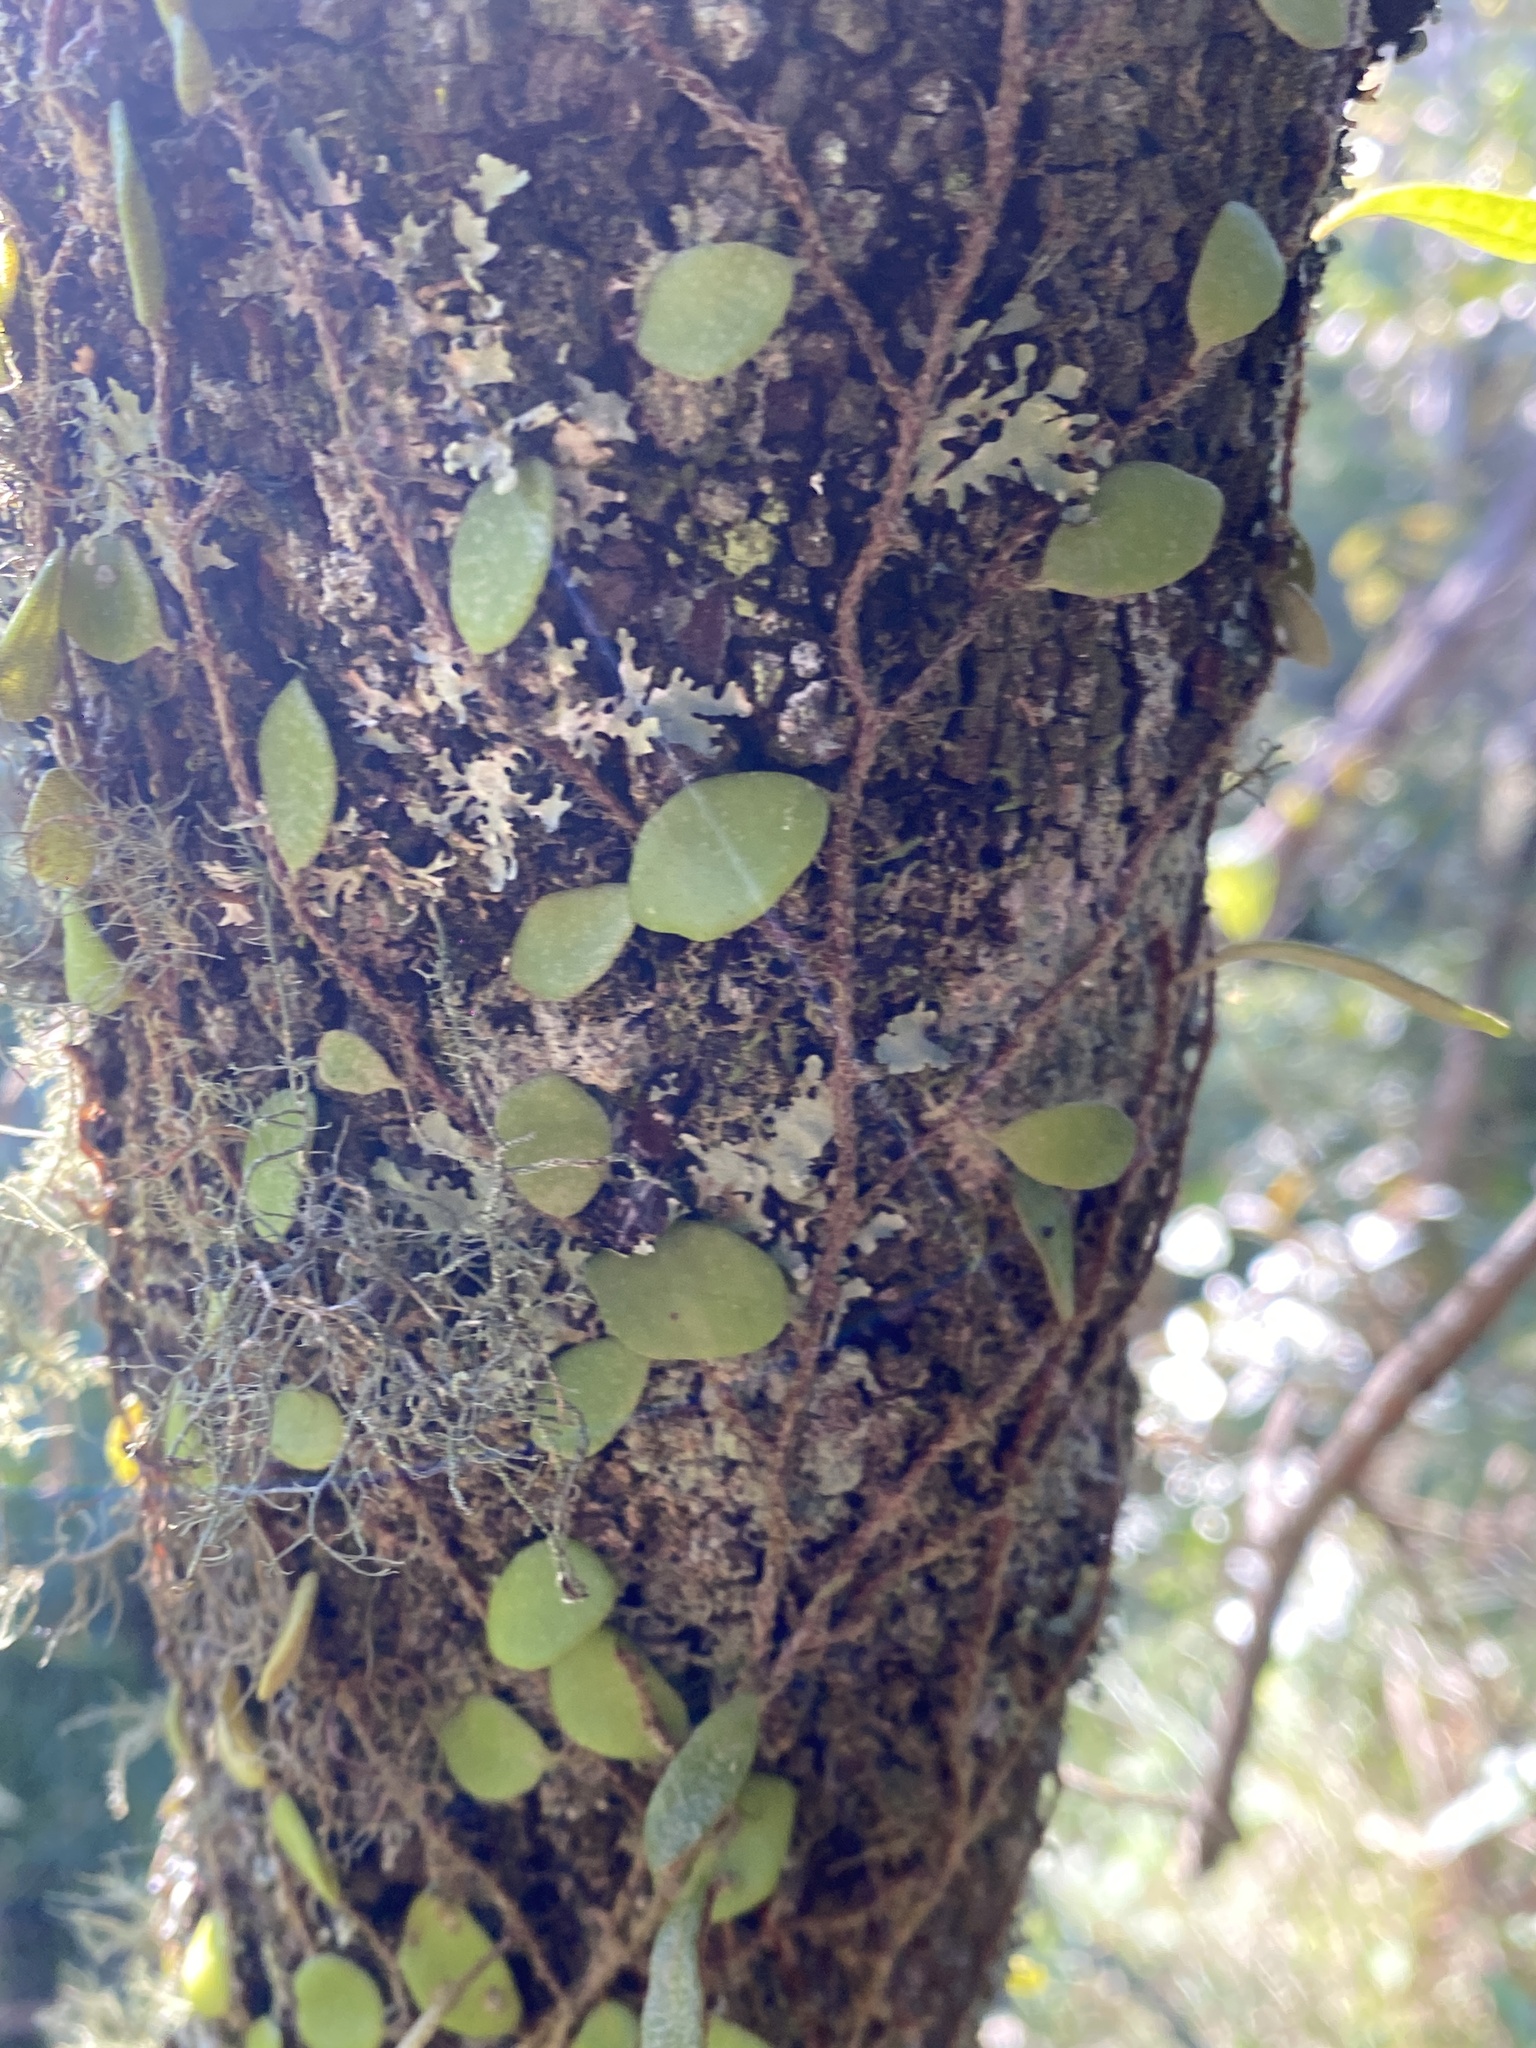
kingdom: Plantae
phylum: Tracheophyta
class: Polypodiopsida
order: Polypodiales
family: Polypodiaceae
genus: Pyrrosia
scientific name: Pyrrosia rupestris
